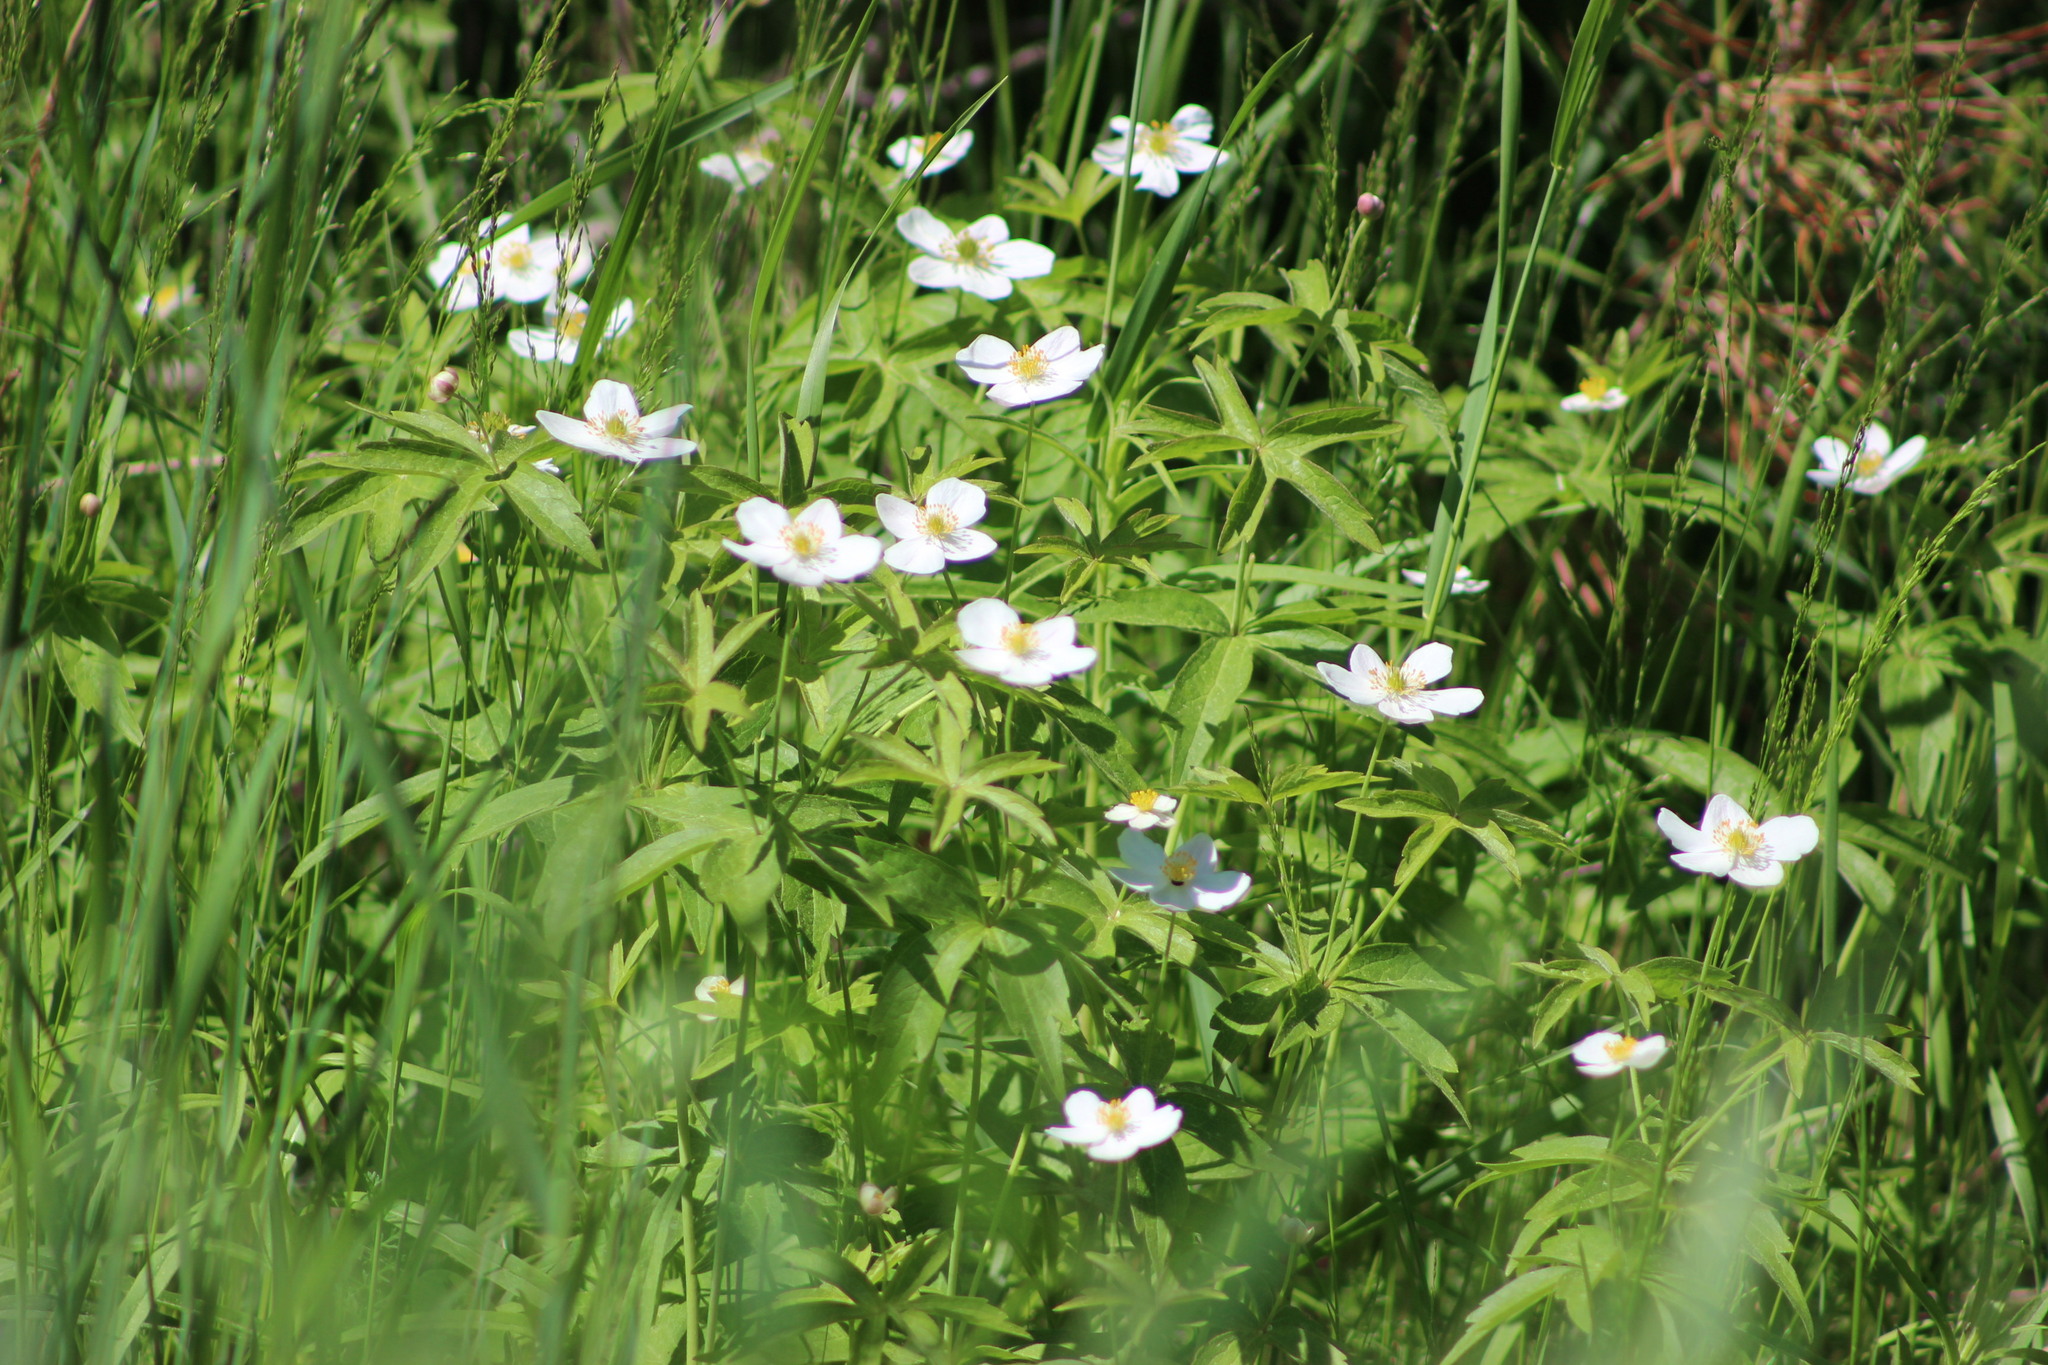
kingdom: Plantae
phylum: Tracheophyta
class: Magnoliopsida
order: Ranunculales
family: Ranunculaceae
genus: Anemonastrum
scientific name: Anemonastrum dichotomum
